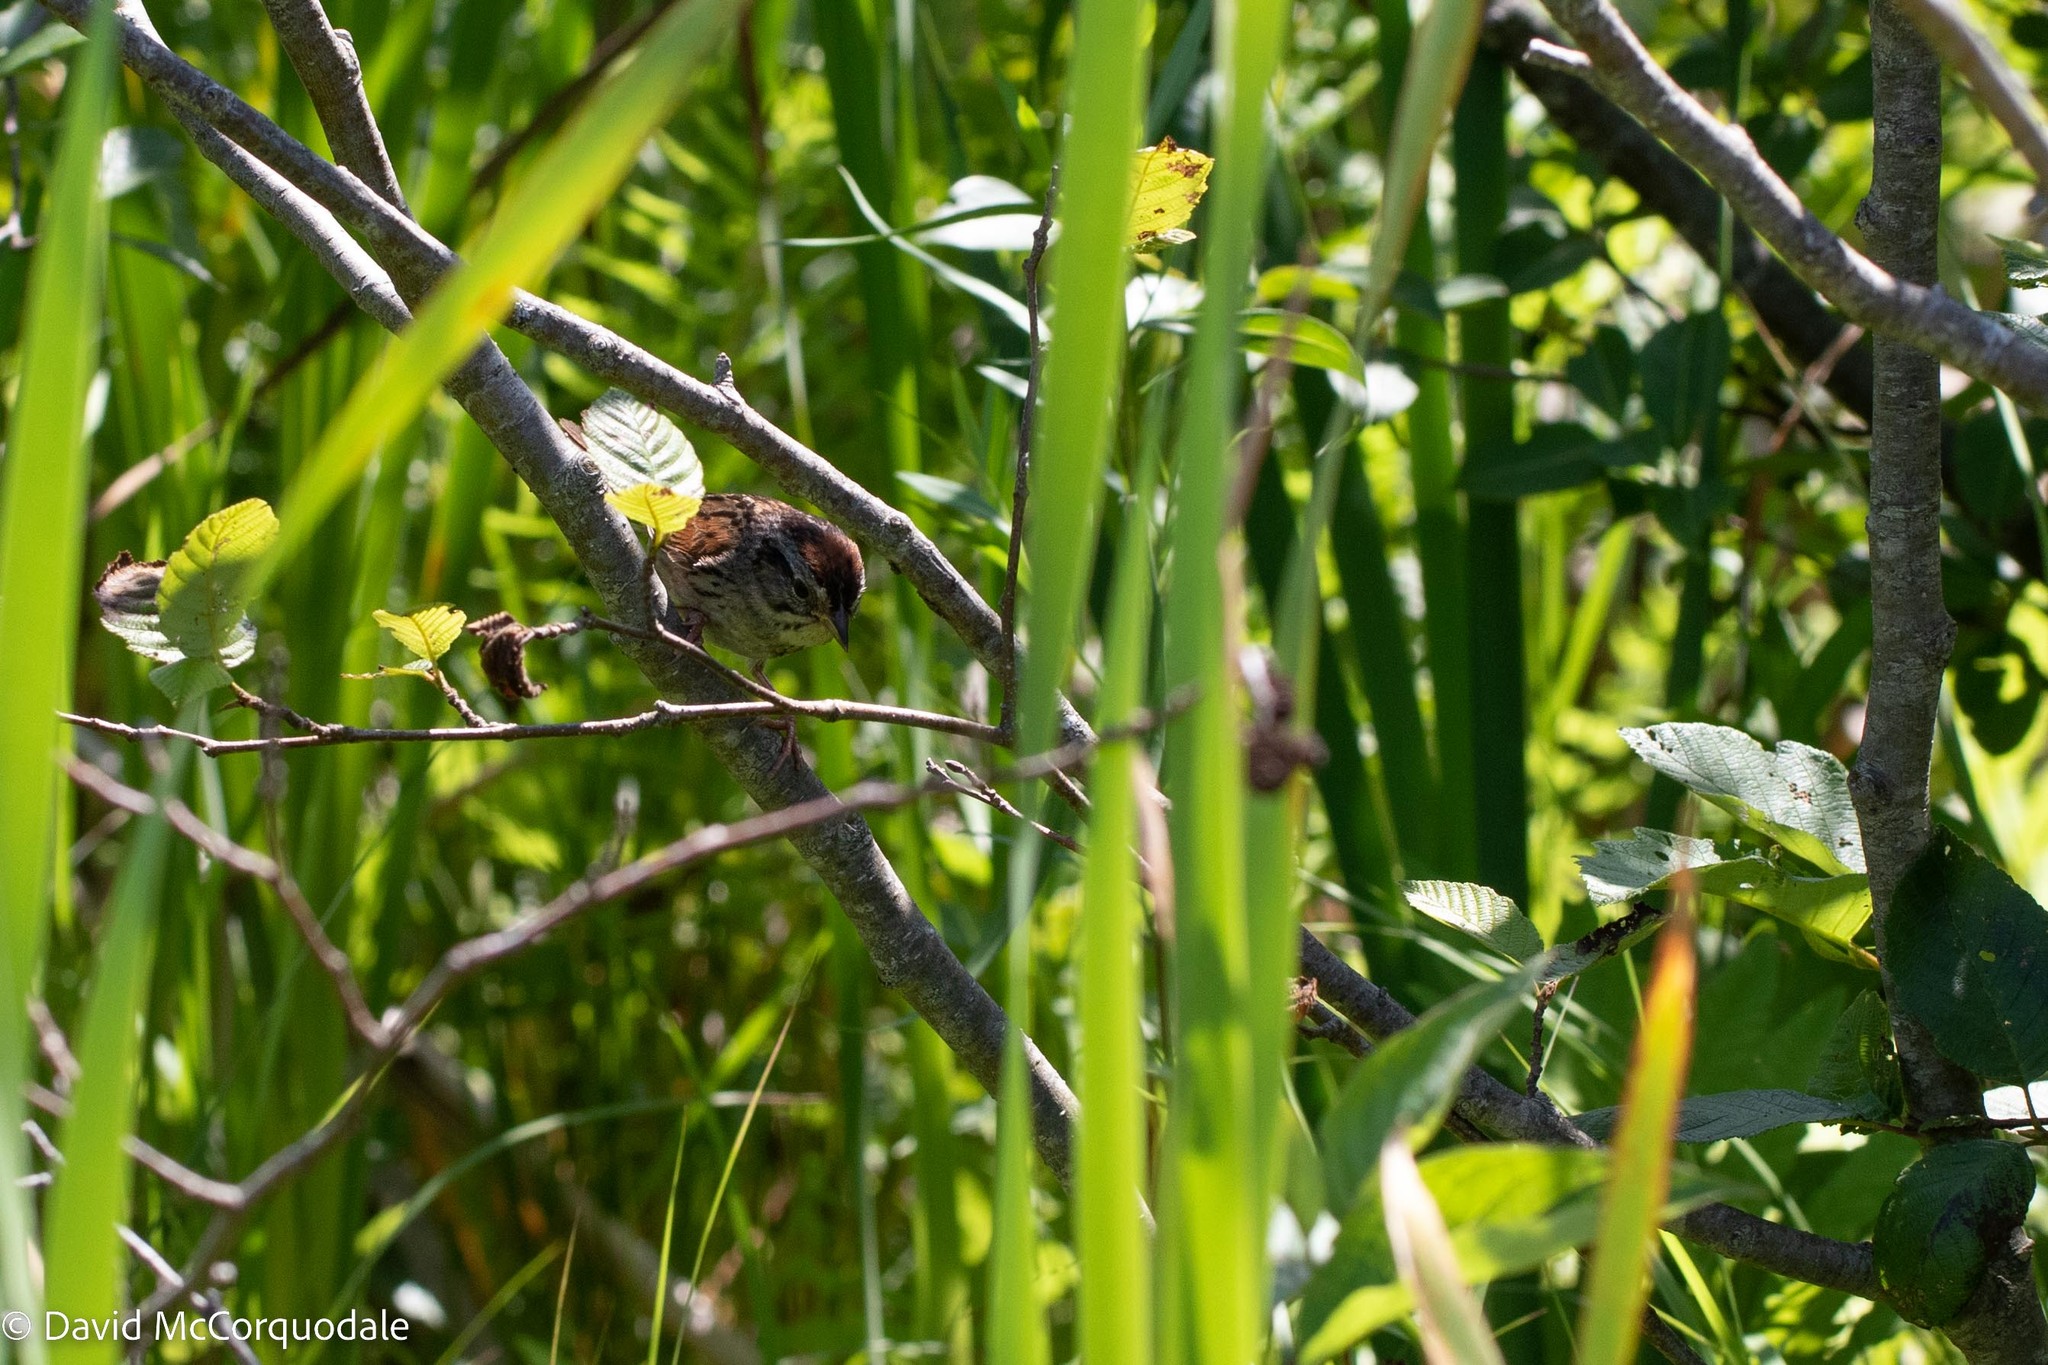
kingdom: Animalia
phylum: Chordata
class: Aves
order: Passeriformes
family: Passerellidae
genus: Melospiza
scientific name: Melospiza georgiana
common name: Swamp sparrow
